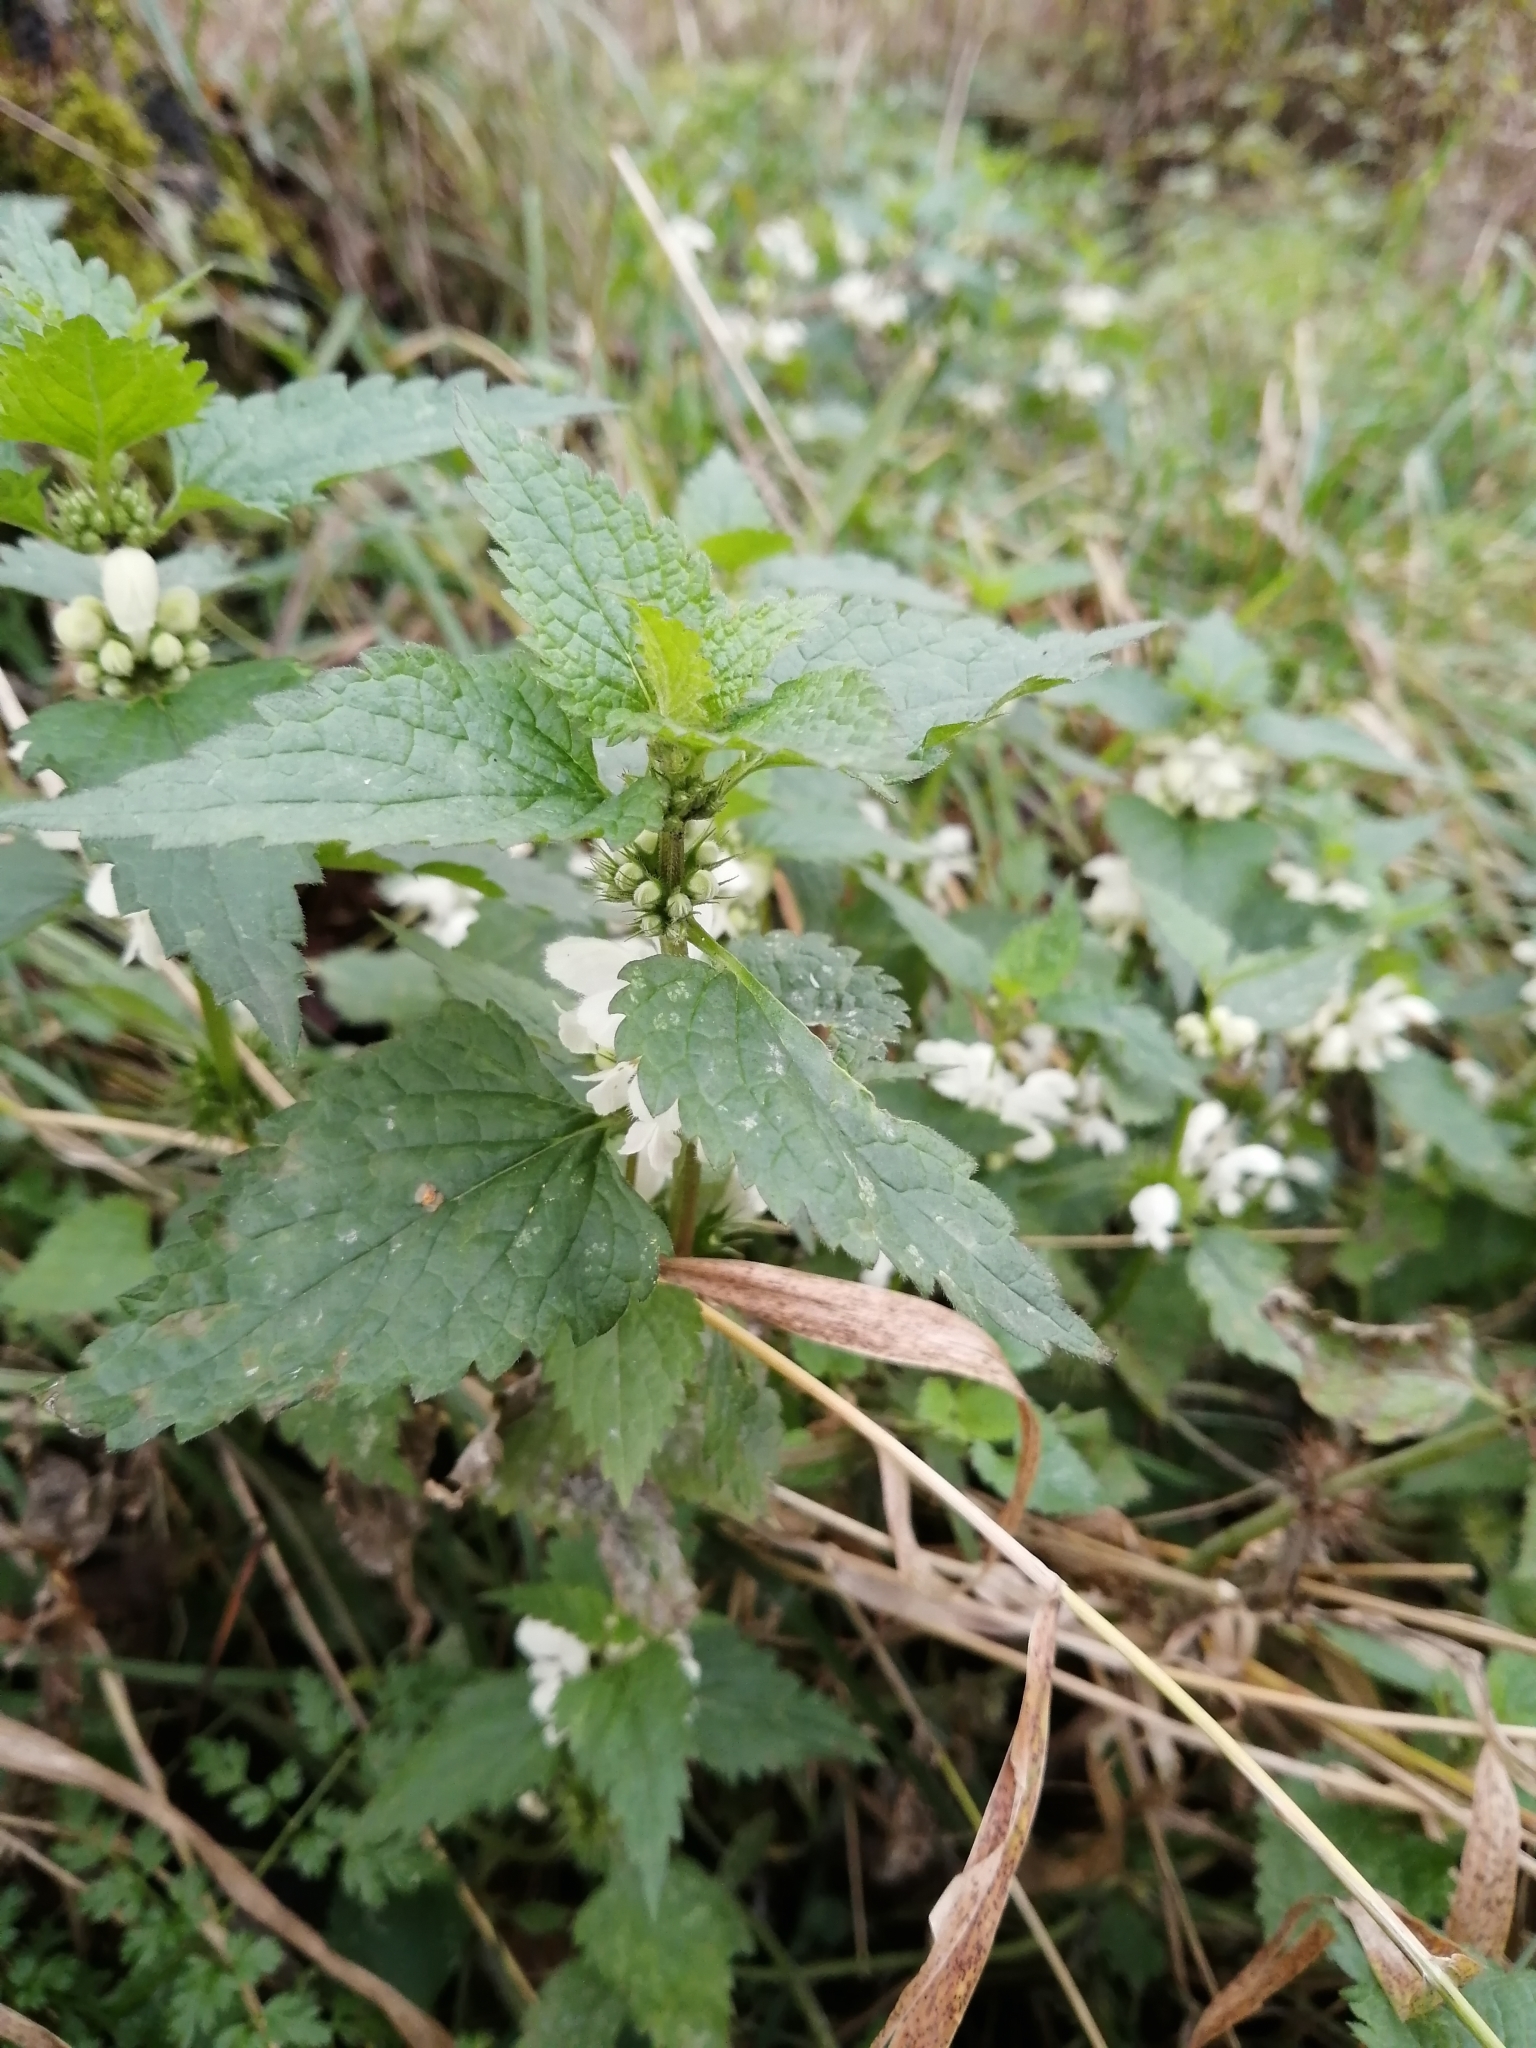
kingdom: Plantae
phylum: Tracheophyta
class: Magnoliopsida
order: Lamiales
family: Lamiaceae
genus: Lamium
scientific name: Lamium album
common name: White dead-nettle
